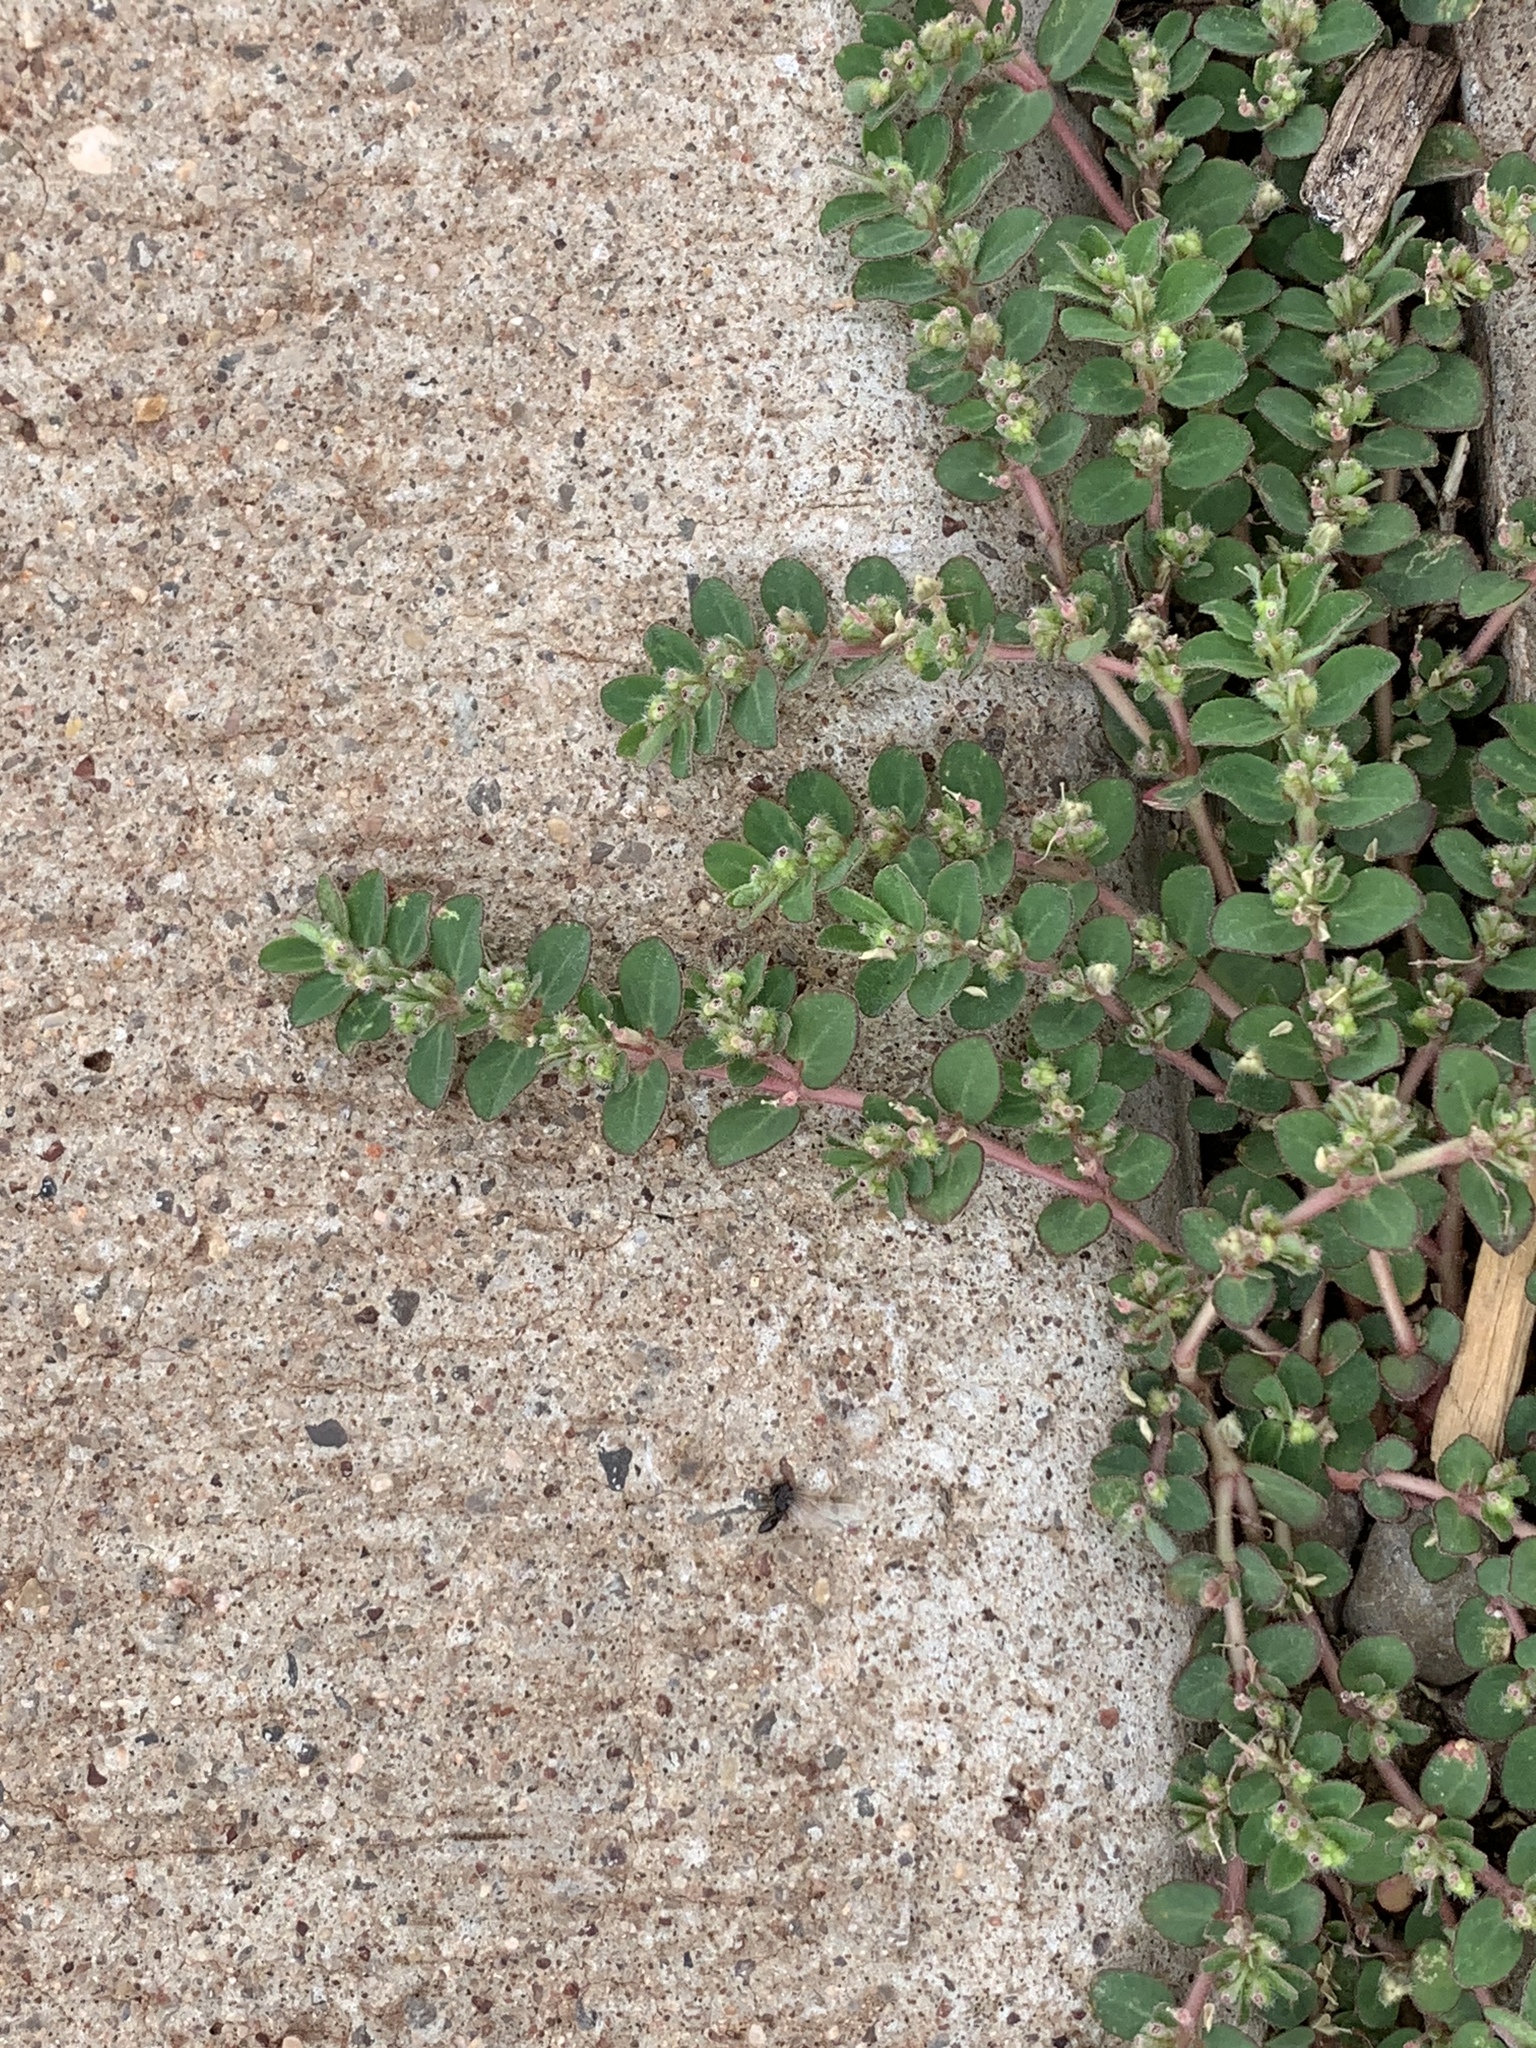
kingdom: Plantae
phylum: Tracheophyta
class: Magnoliopsida
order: Malpighiales
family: Euphorbiaceae
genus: Euphorbia
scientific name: Euphorbia prostrata
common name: Prostrate sandmat
